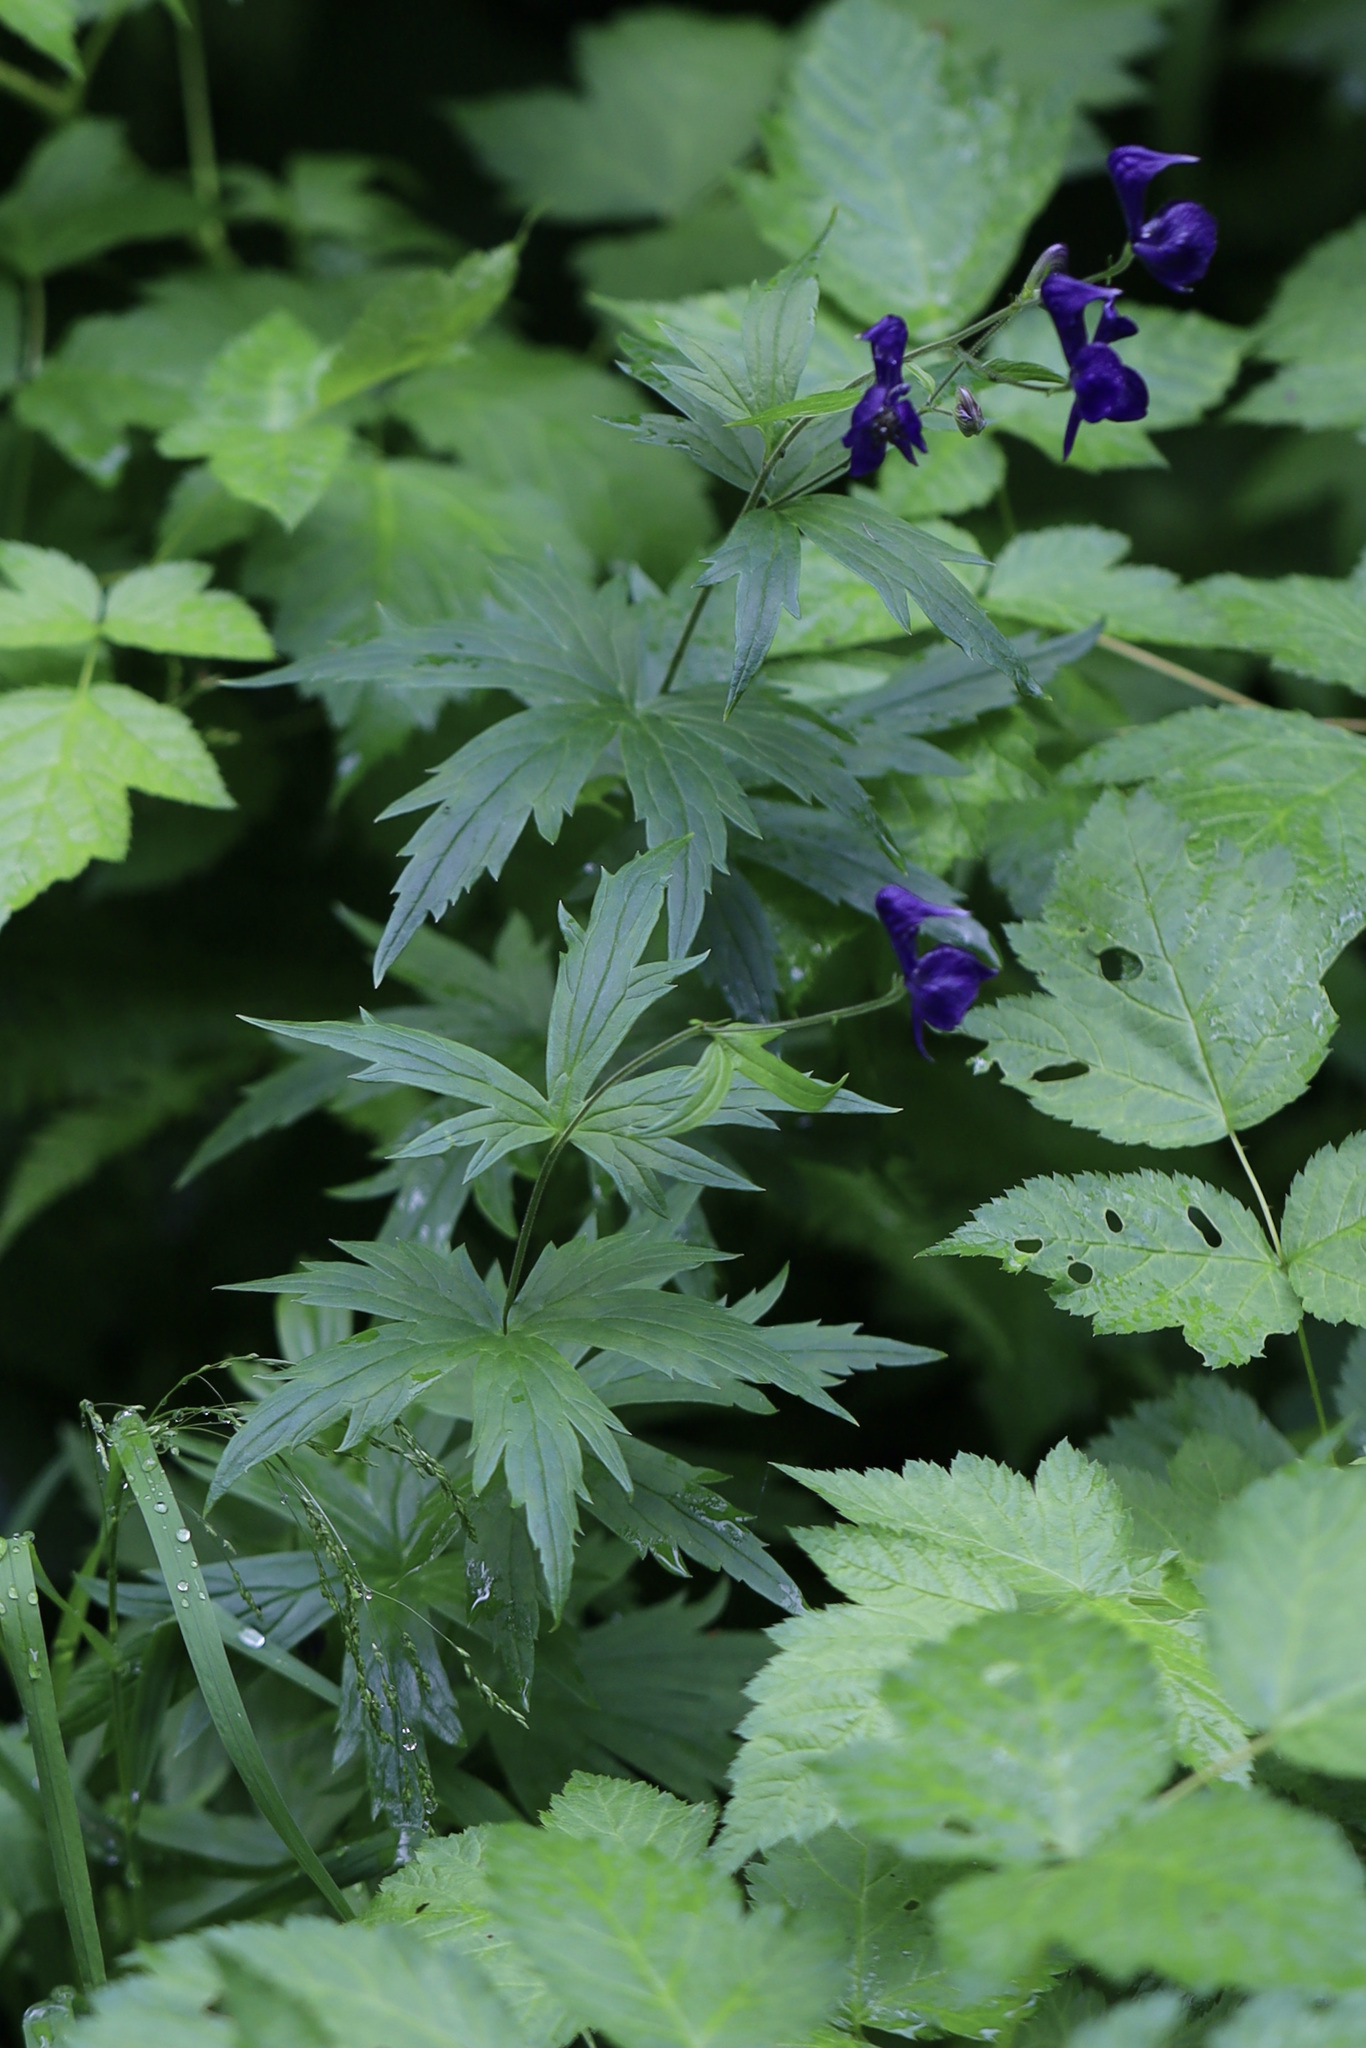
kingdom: Plantae
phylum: Tracheophyta
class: Magnoliopsida
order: Ranunculales
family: Ranunculaceae
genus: Aconitum
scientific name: Aconitum columbianum
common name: Columbia aconite
